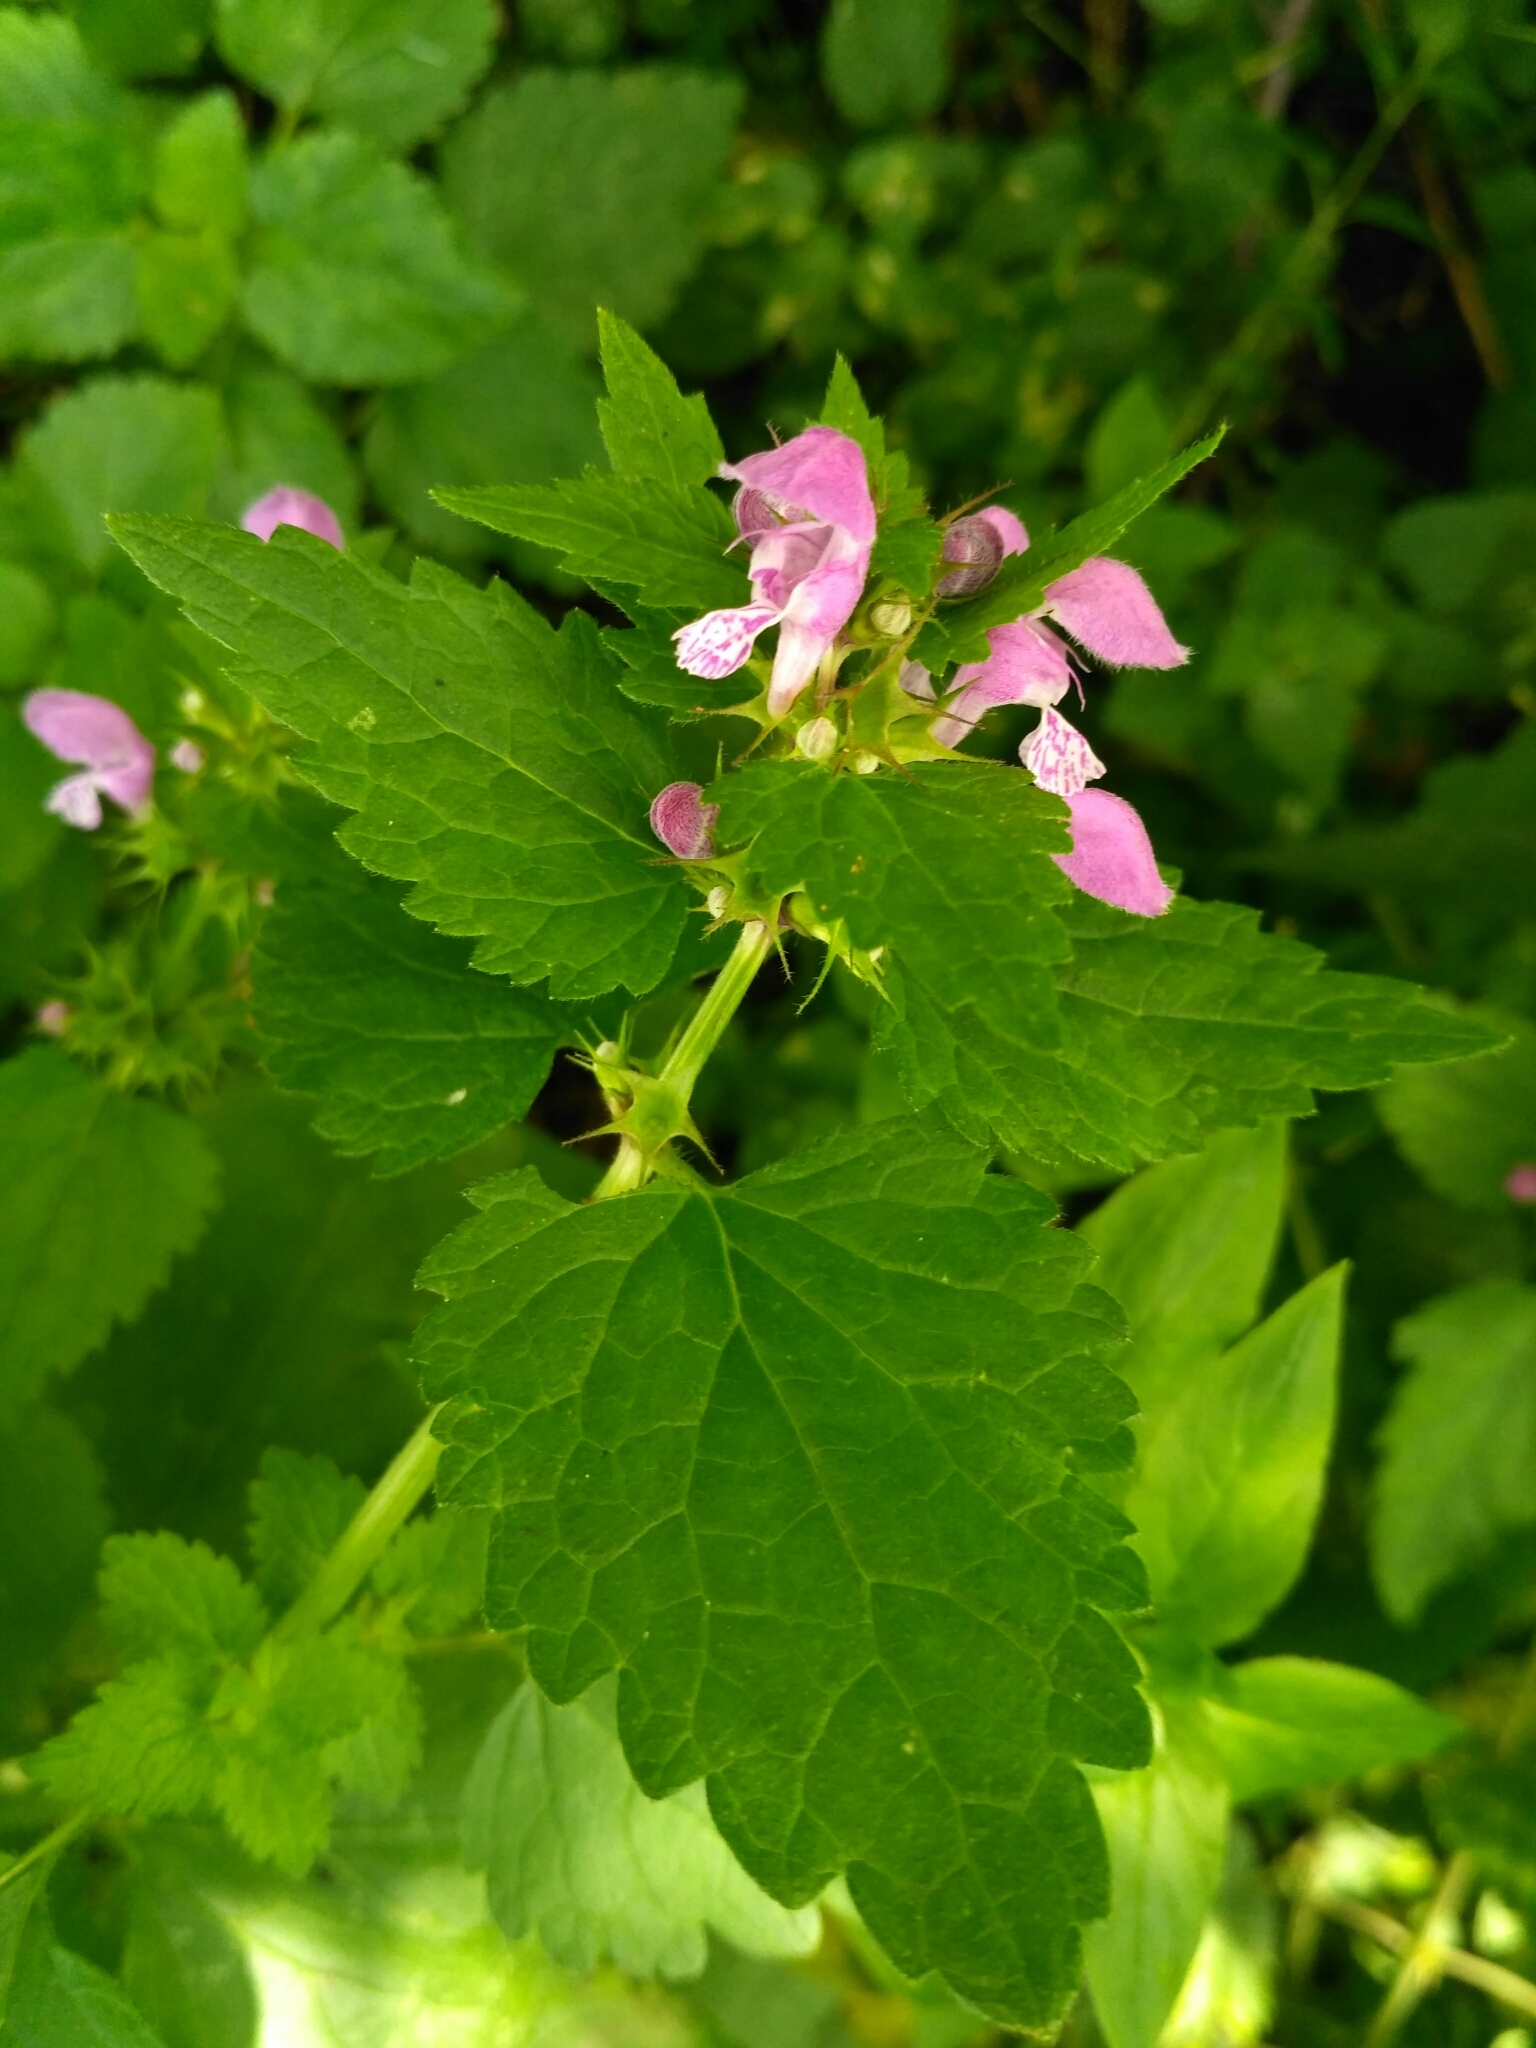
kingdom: Plantae
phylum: Tracheophyta
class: Magnoliopsida
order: Lamiales
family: Lamiaceae
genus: Lamium
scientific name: Lamium maculatum
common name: Spotted dead-nettle
